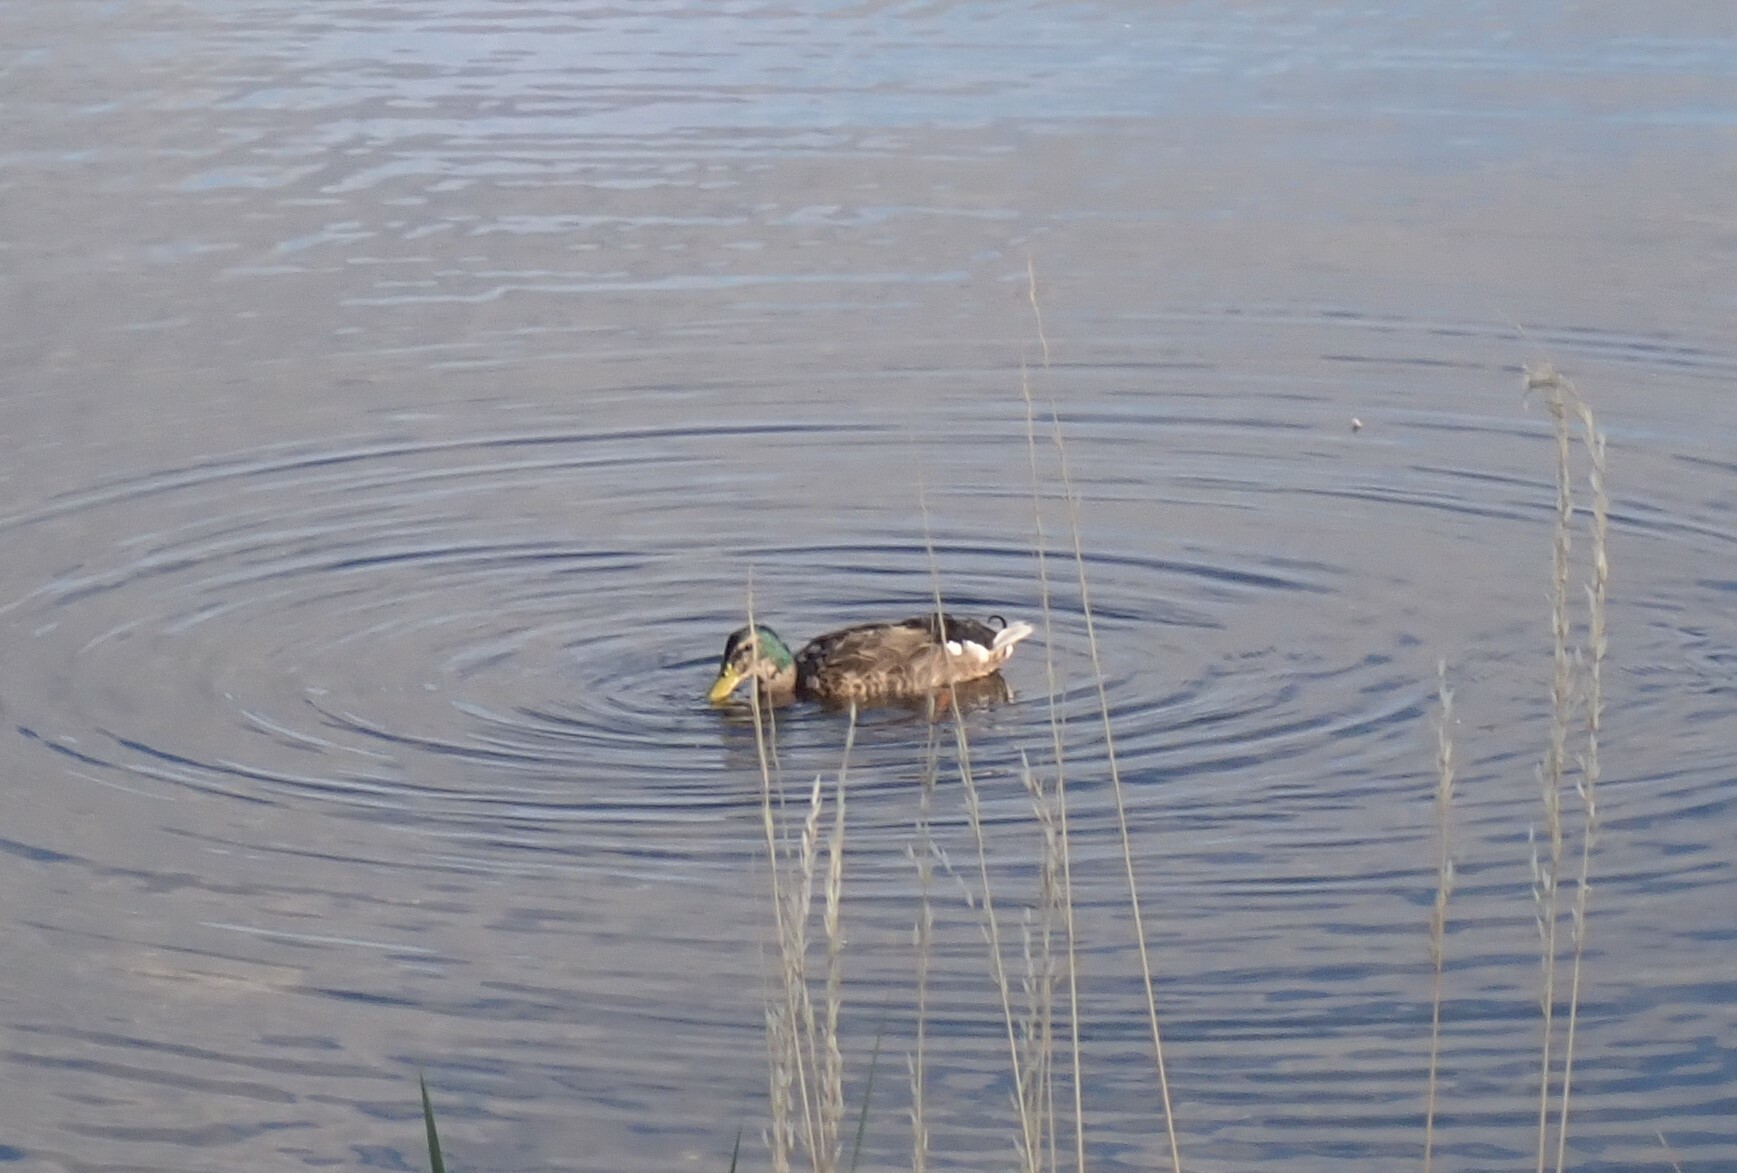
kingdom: Animalia
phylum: Chordata
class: Aves
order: Anseriformes
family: Anatidae
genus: Anas
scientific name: Anas platyrhynchos
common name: Mallard
